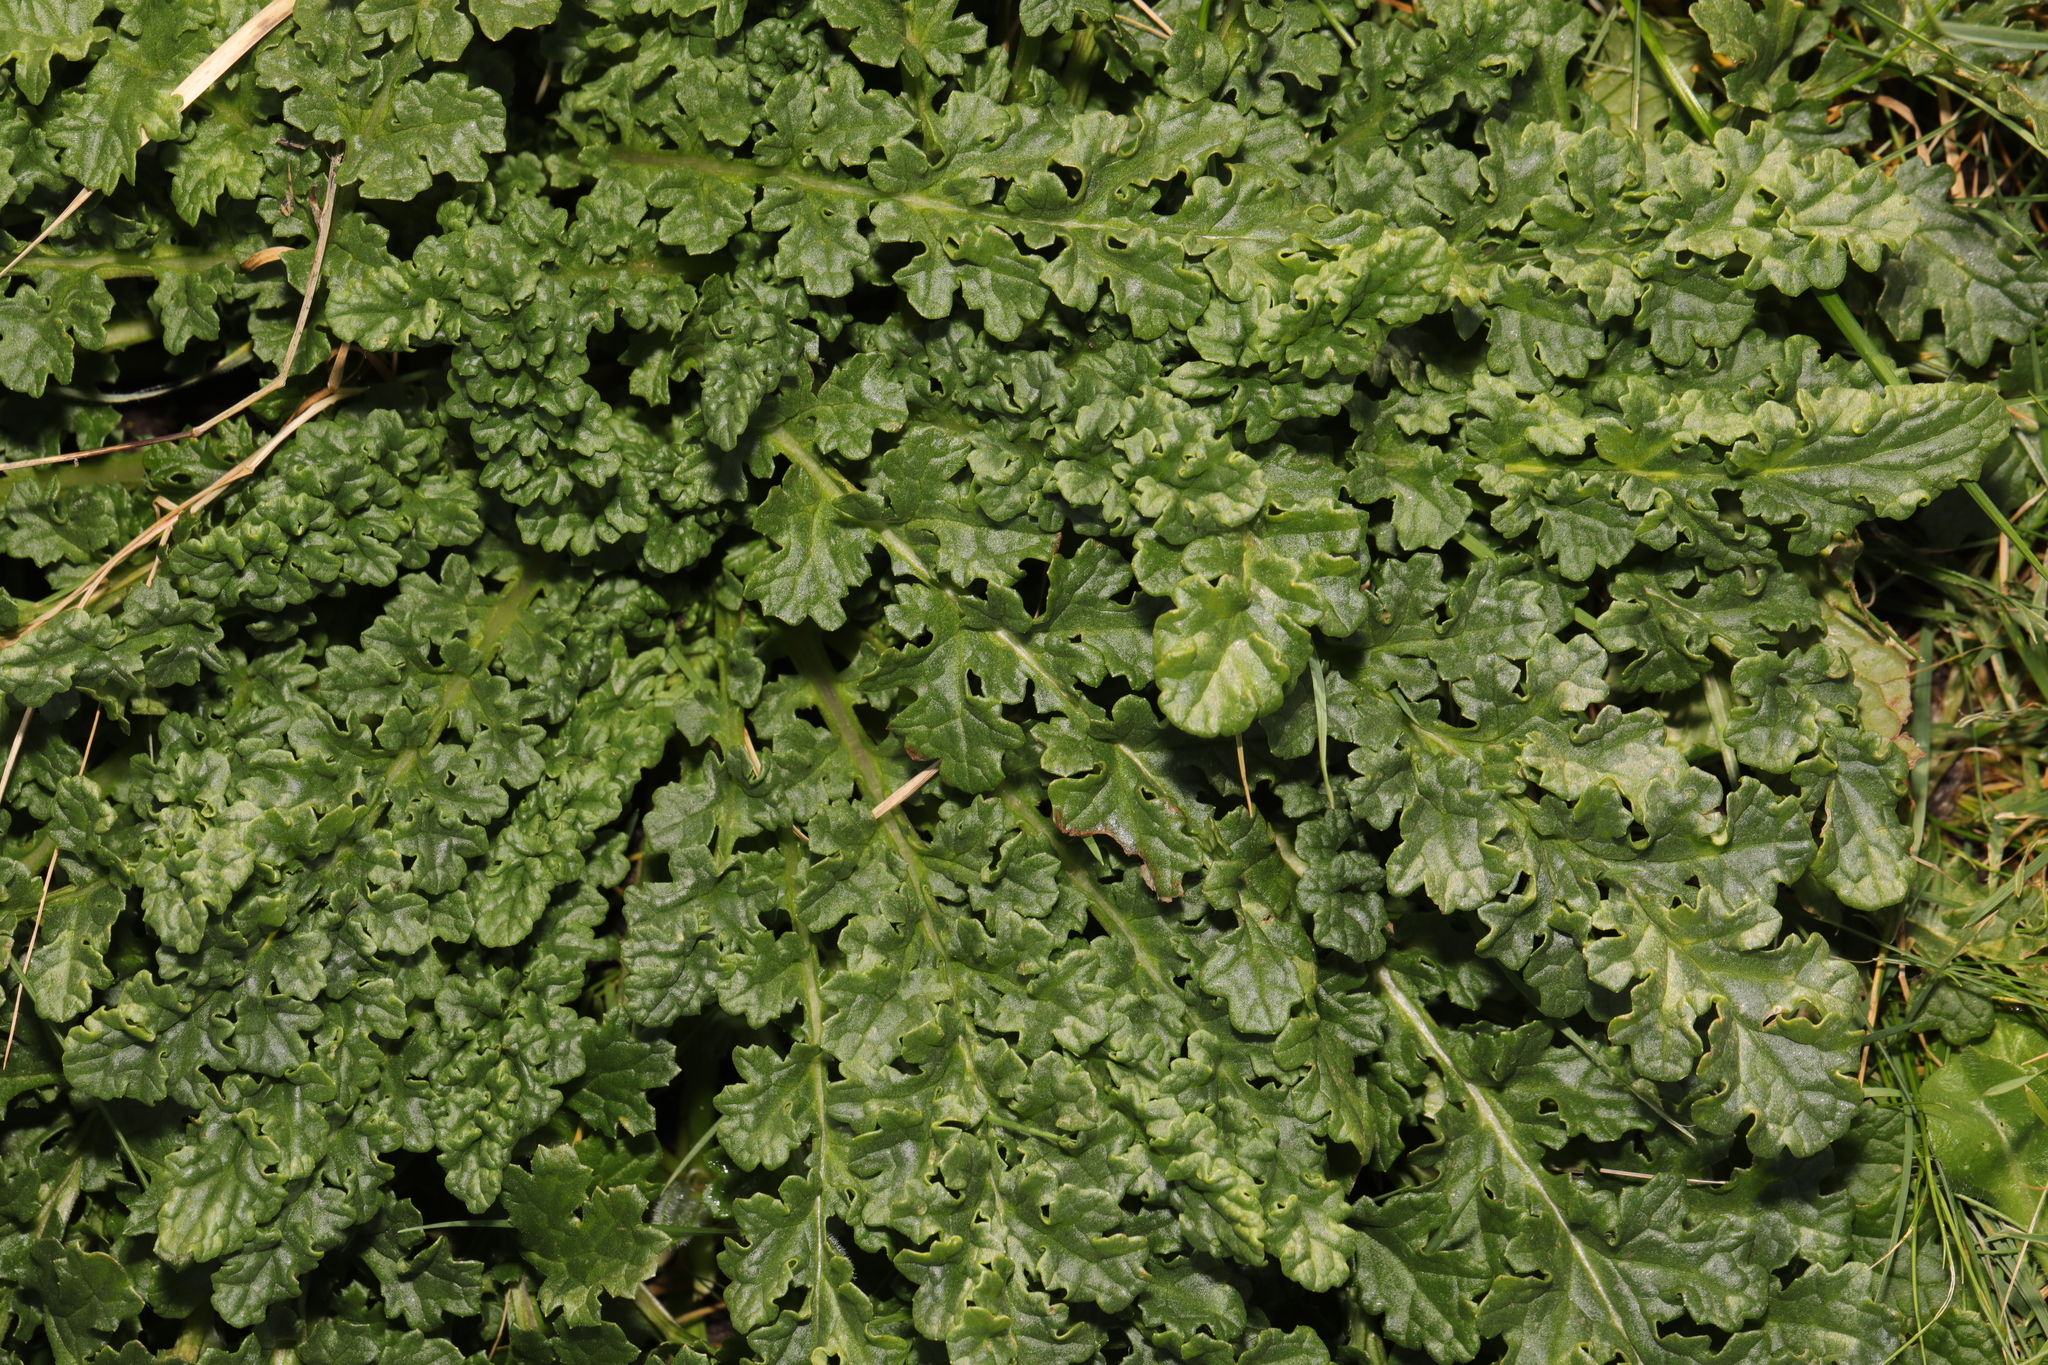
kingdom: Plantae
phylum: Tracheophyta
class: Magnoliopsida
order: Asterales
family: Asteraceae
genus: Jacobaea
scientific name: Jacobaea vulgaris
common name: Stinking willie
